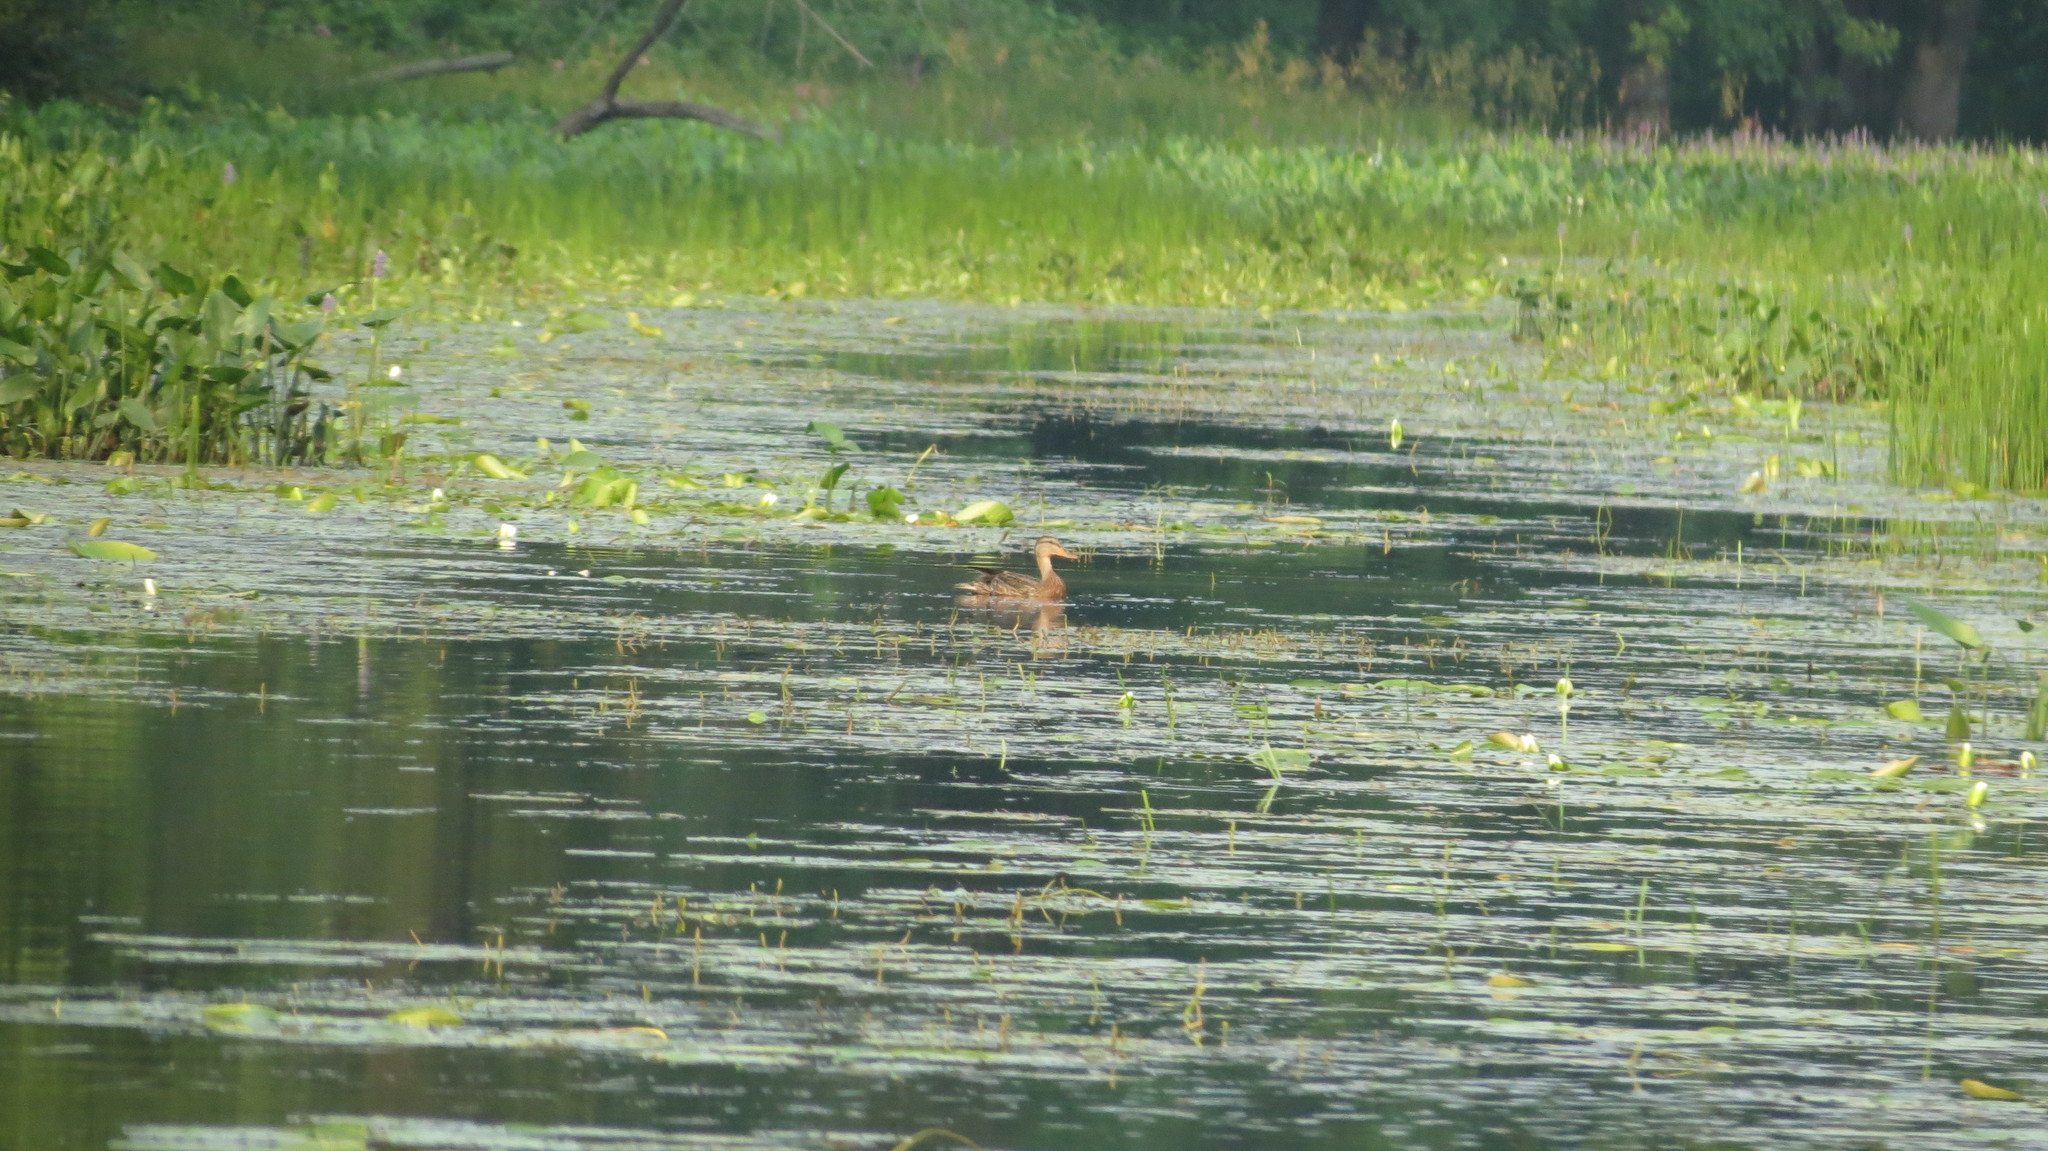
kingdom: Animalia
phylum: Chordata
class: Aves
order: Anseriformes
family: Anatidae
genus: Anas
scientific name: Anas platyrhynchos
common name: Mallard
